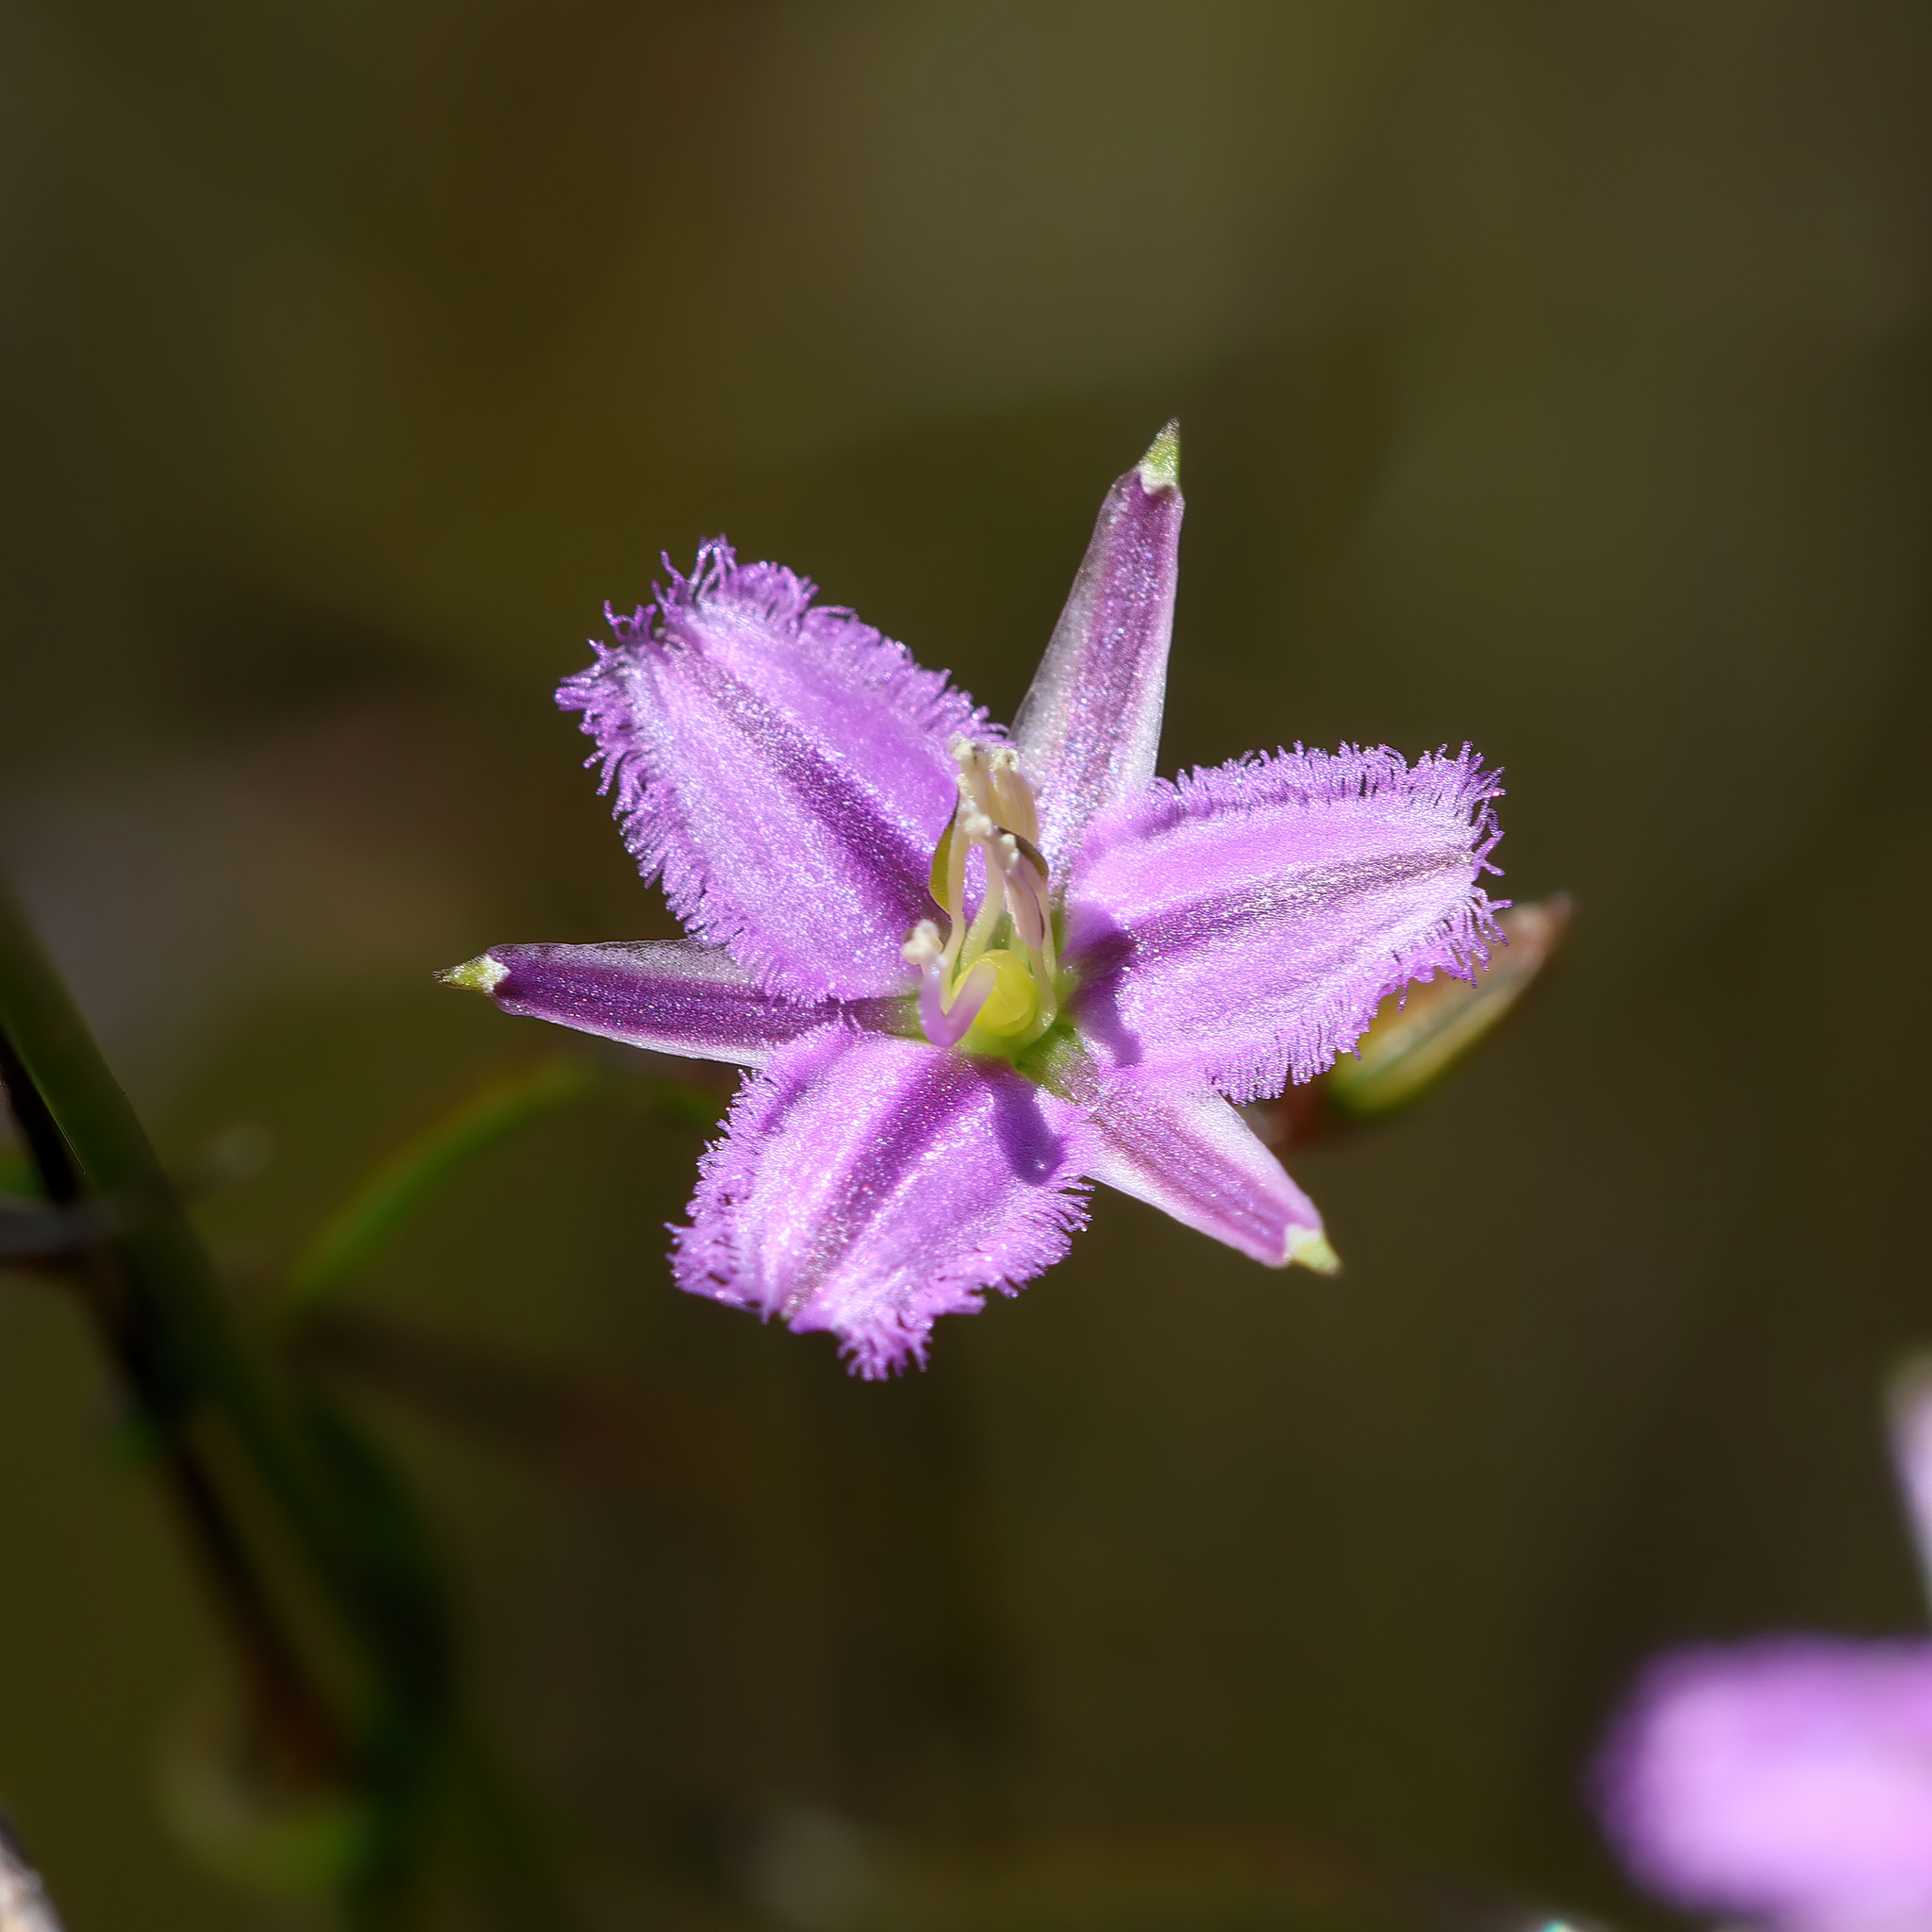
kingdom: Plantae
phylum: Tracheophyta
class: Liliopsida
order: Asparagales
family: Asparagaceae
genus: Thysanotus
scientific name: Thysanotus patersonii
